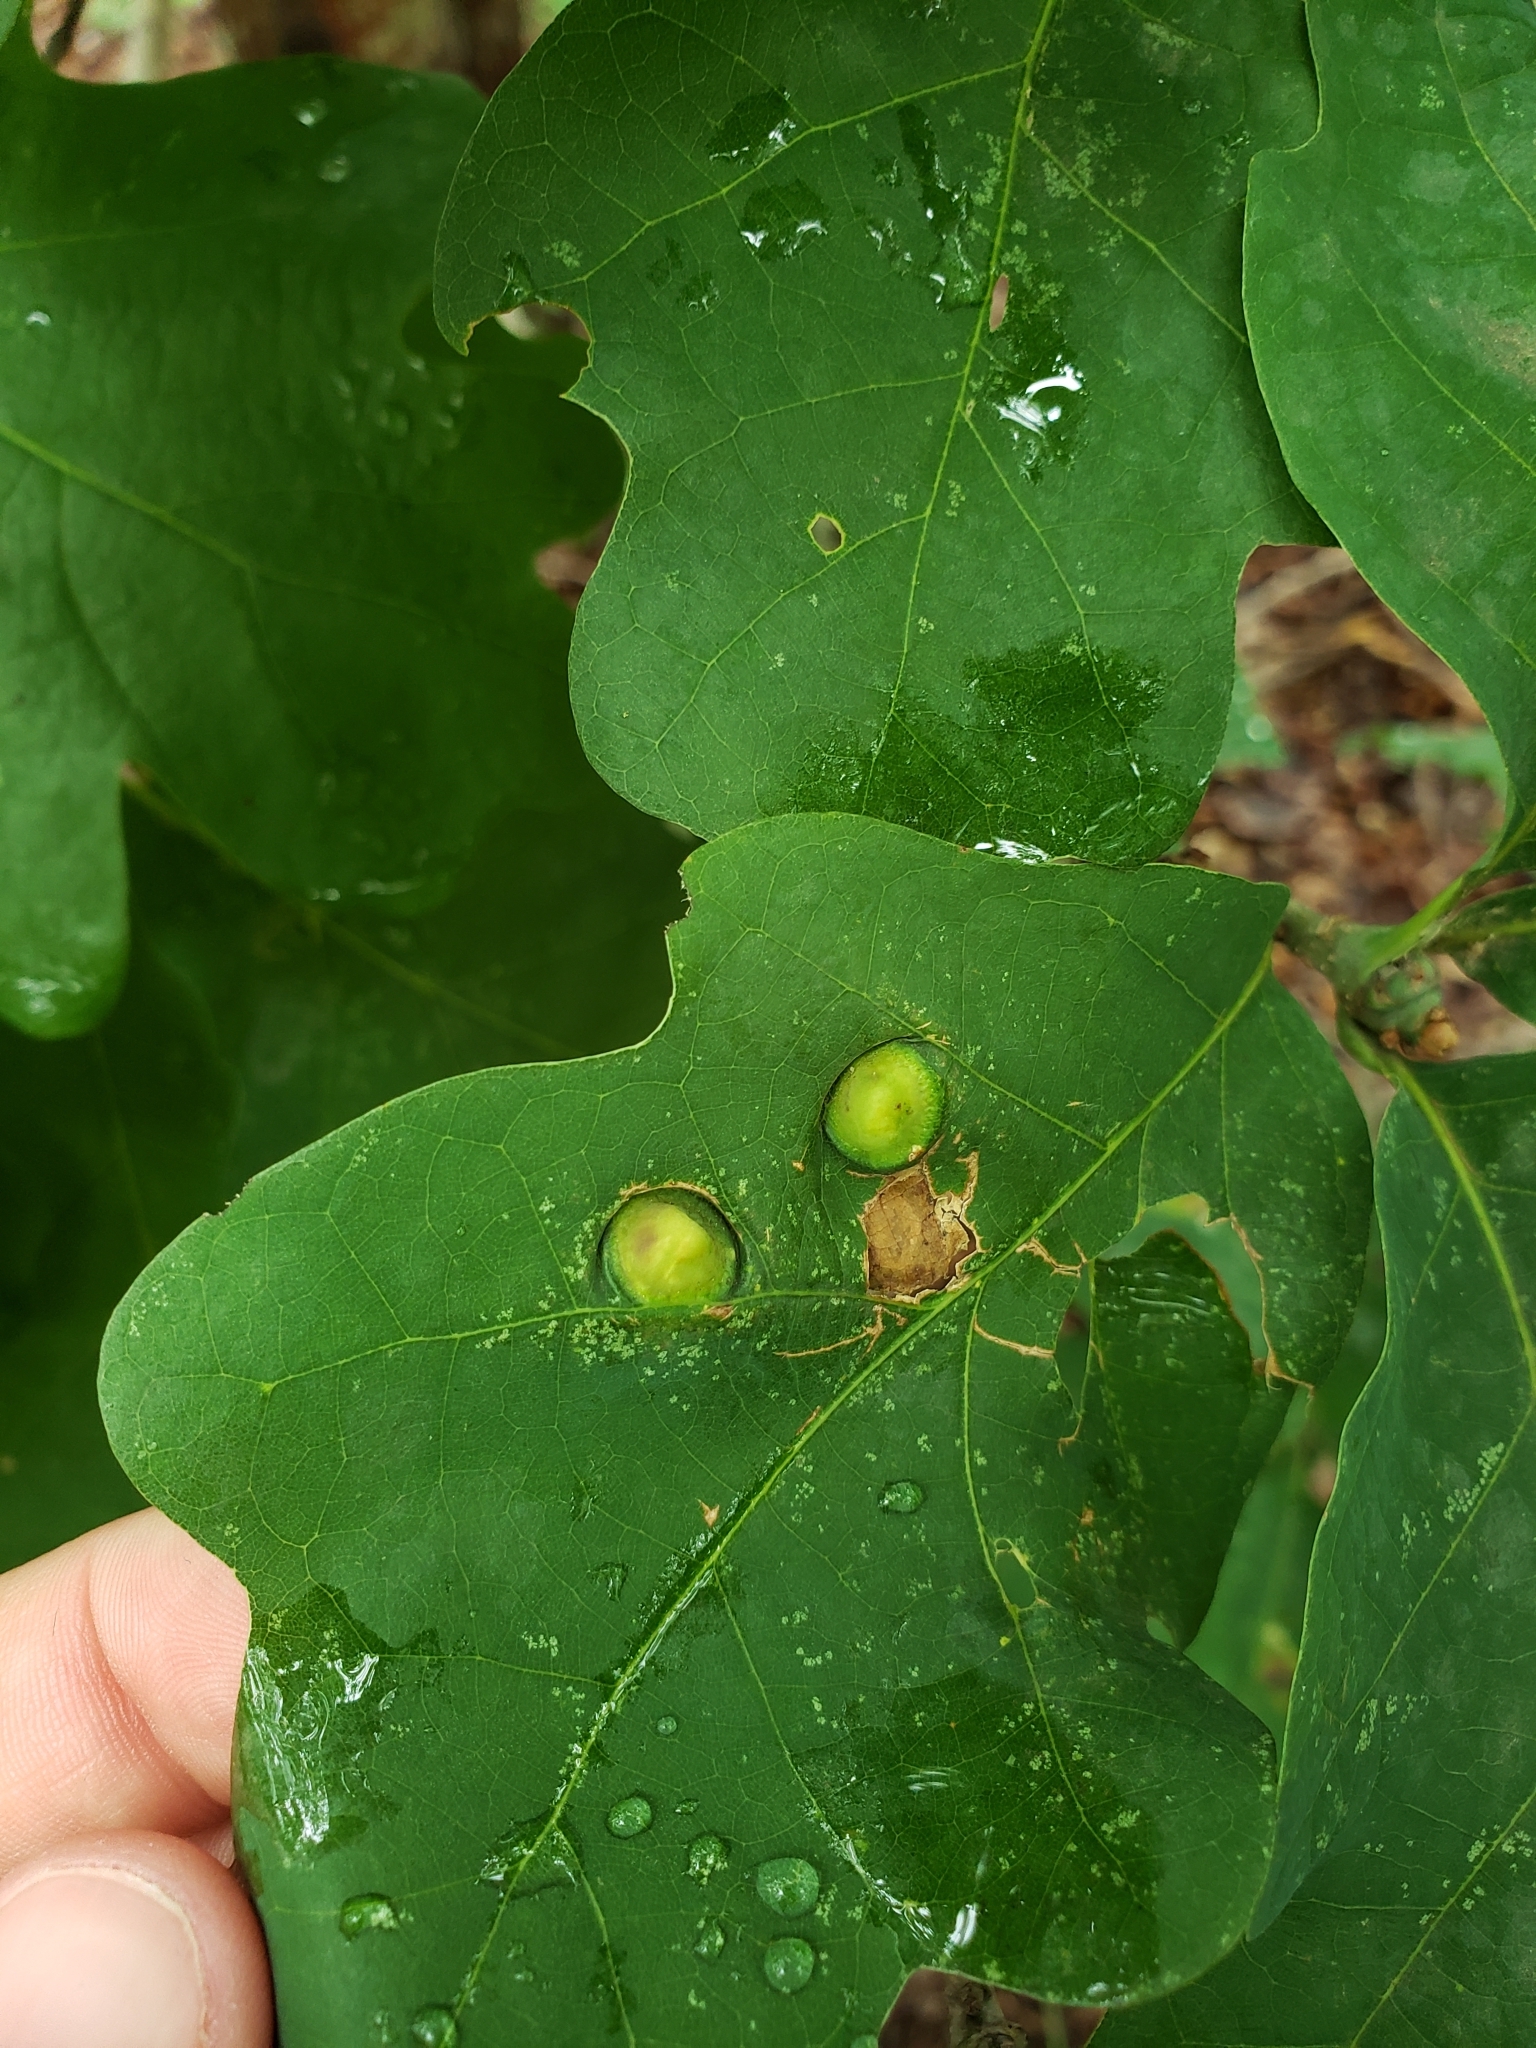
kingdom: Animalia
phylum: Arthropoda
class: Insecta
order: Hymenoptera
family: Cynipidae
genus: Callirhytis
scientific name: Callirhytis
